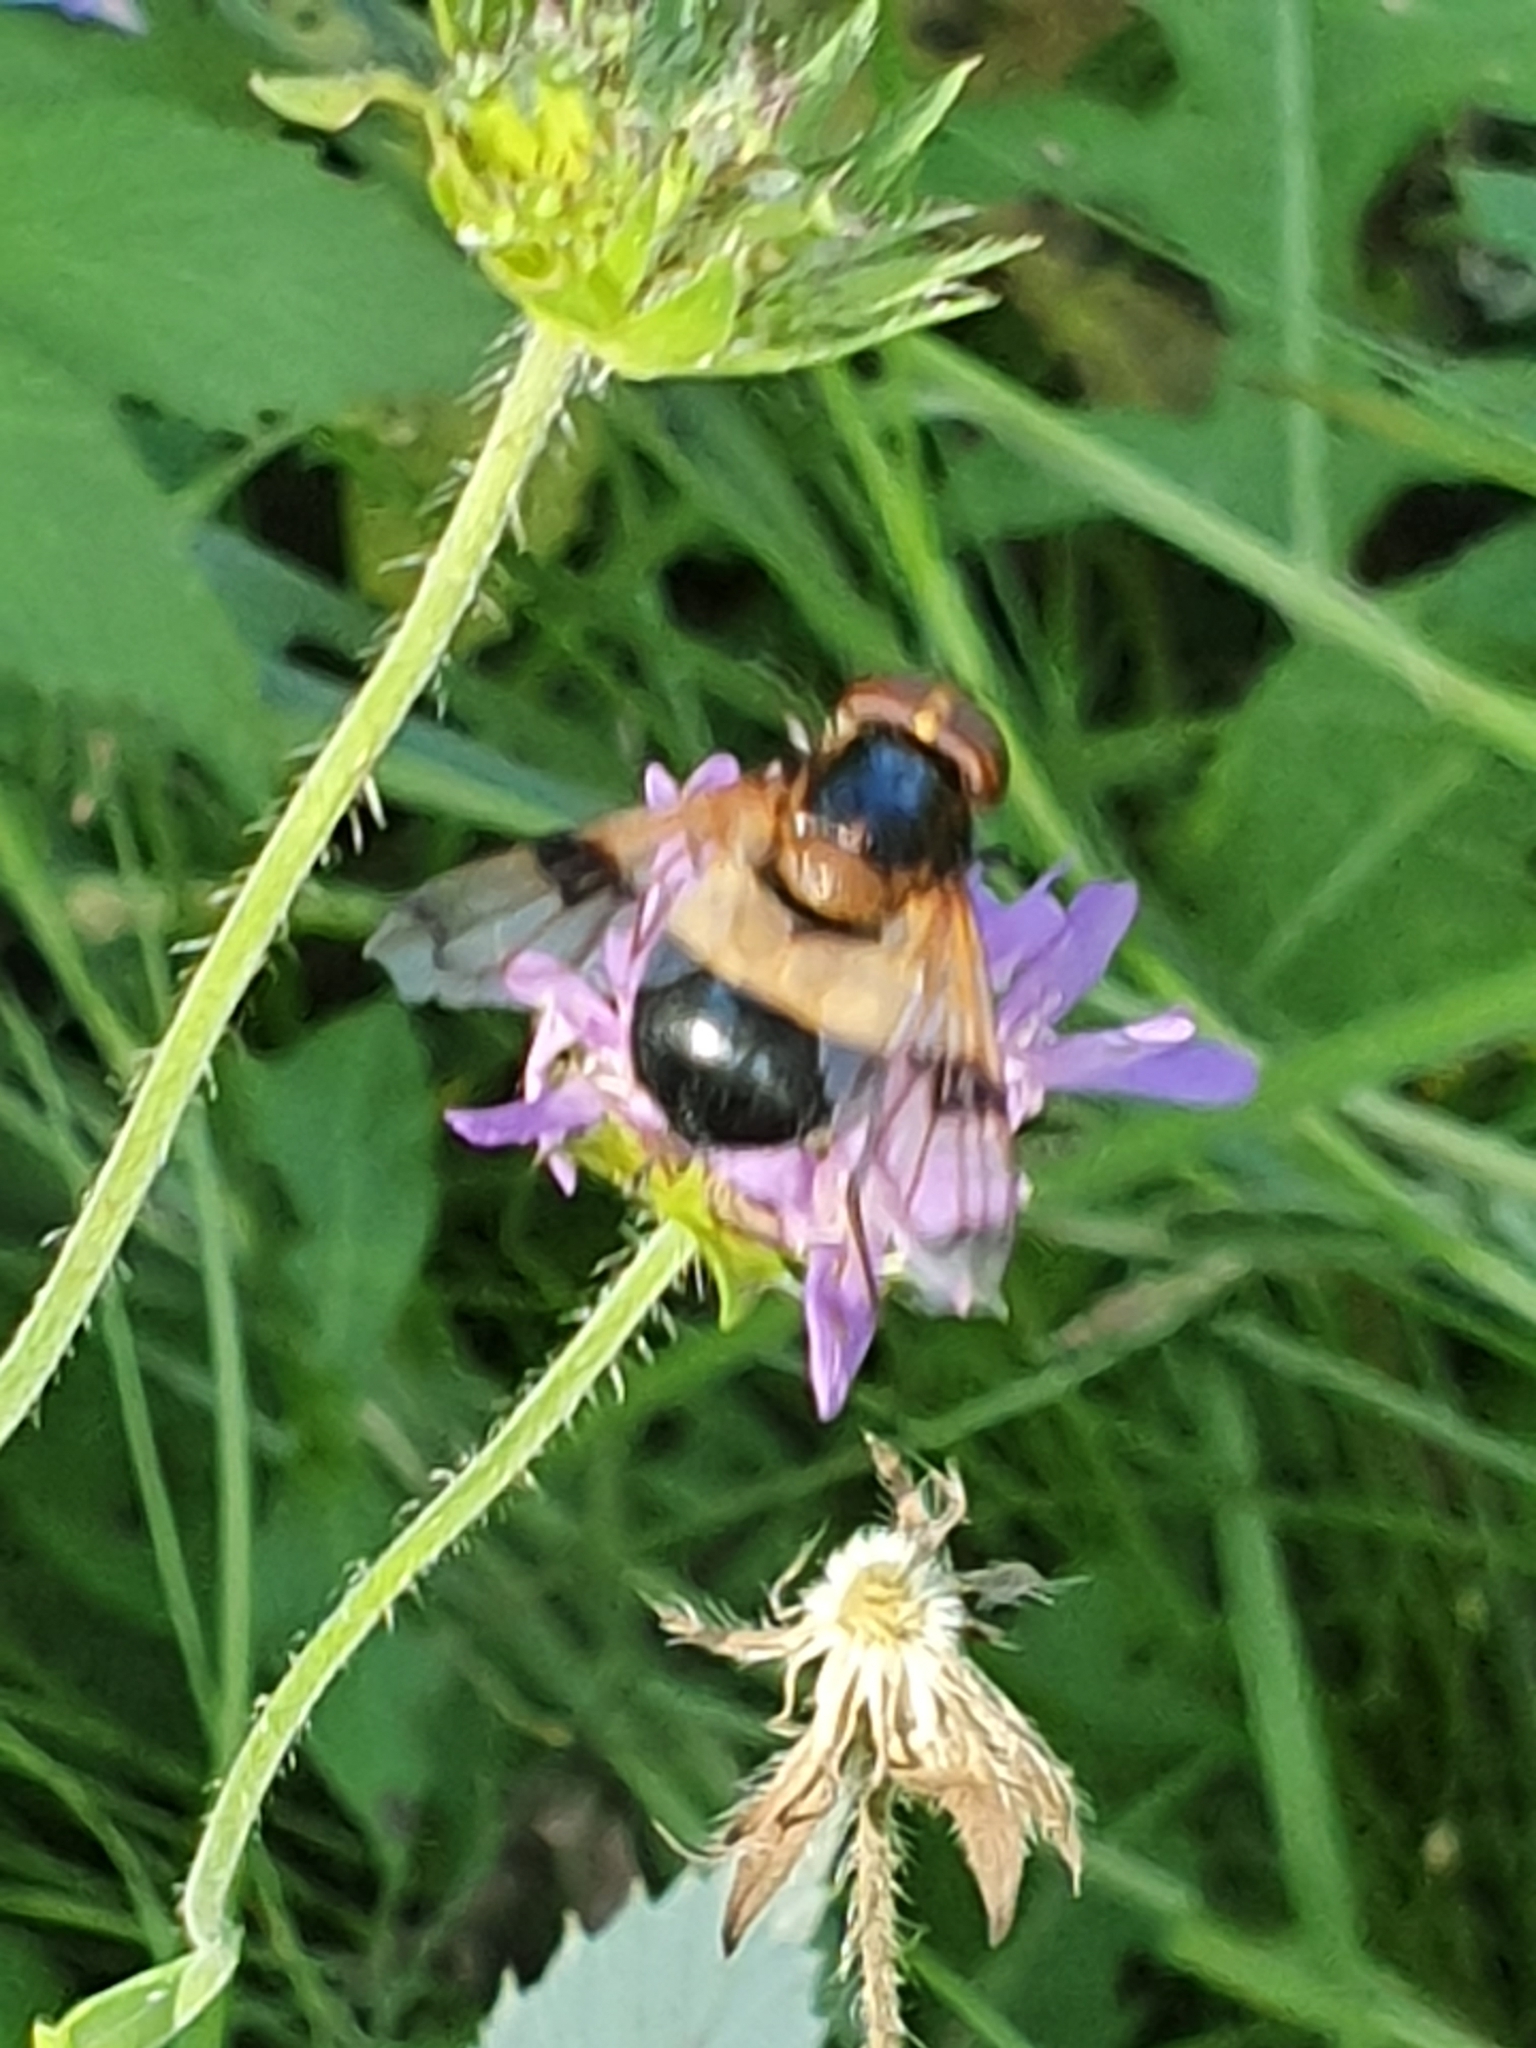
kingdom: Animalia
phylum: Arthropoda
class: Insecta
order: Diptera
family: Syrphidae
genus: Volucella
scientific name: Volucella pellucens
